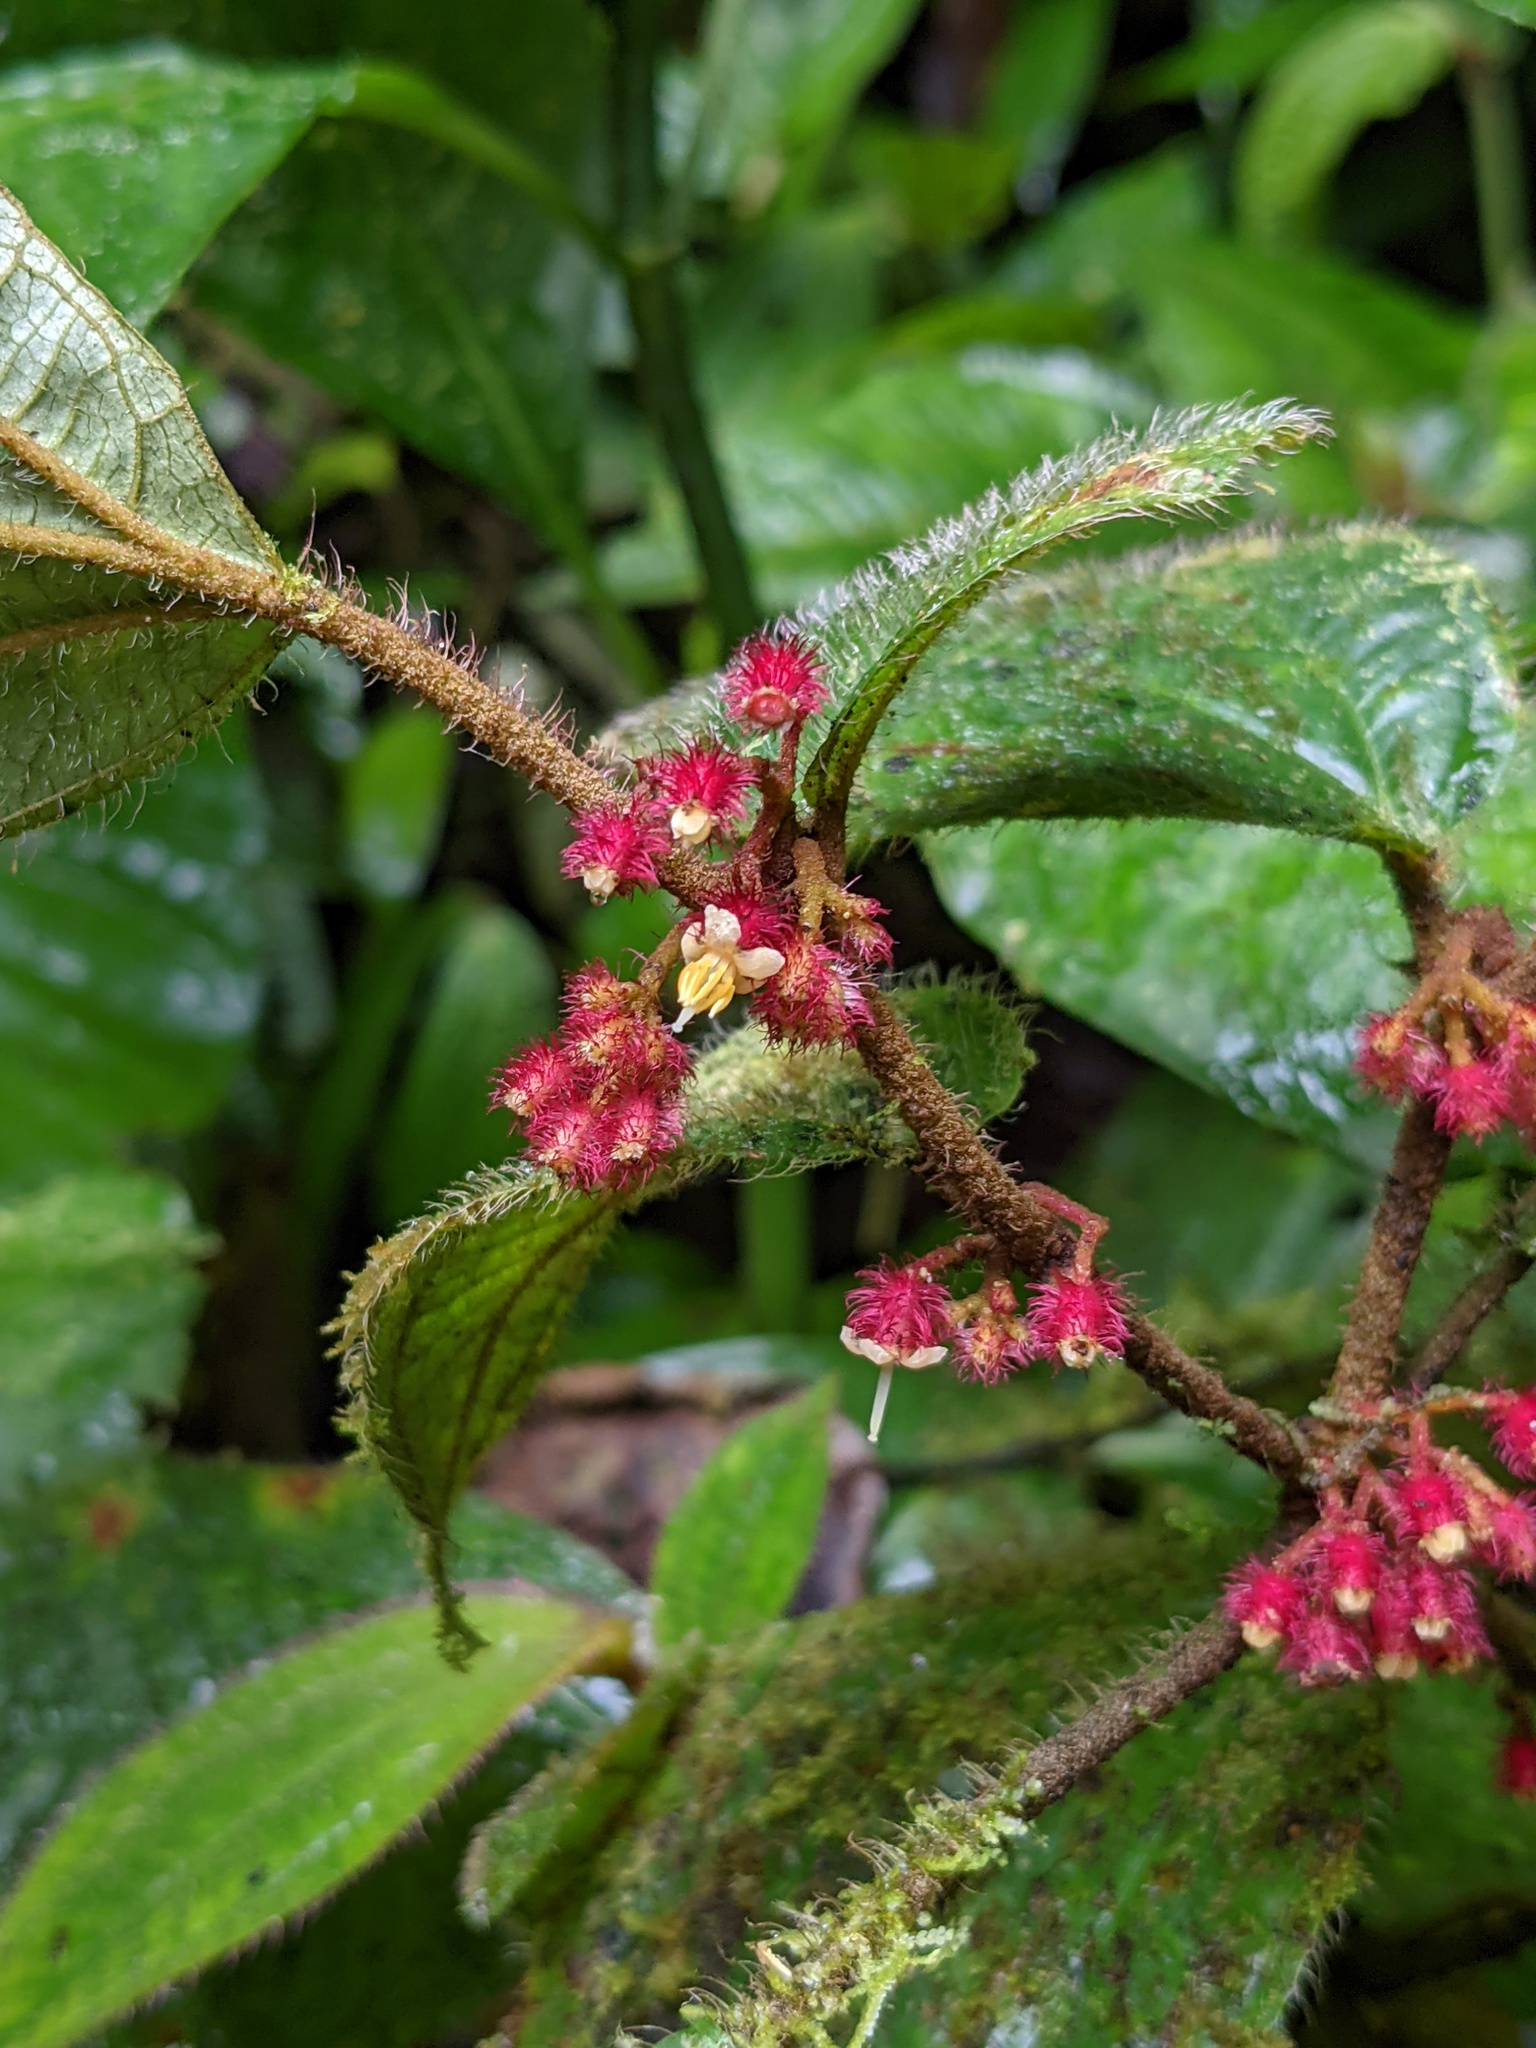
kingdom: Plantae
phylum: Tracheophyta
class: Magnoliopsida
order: Myrtales
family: Melastomataceae
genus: Miconia
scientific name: Miconia reitziana
